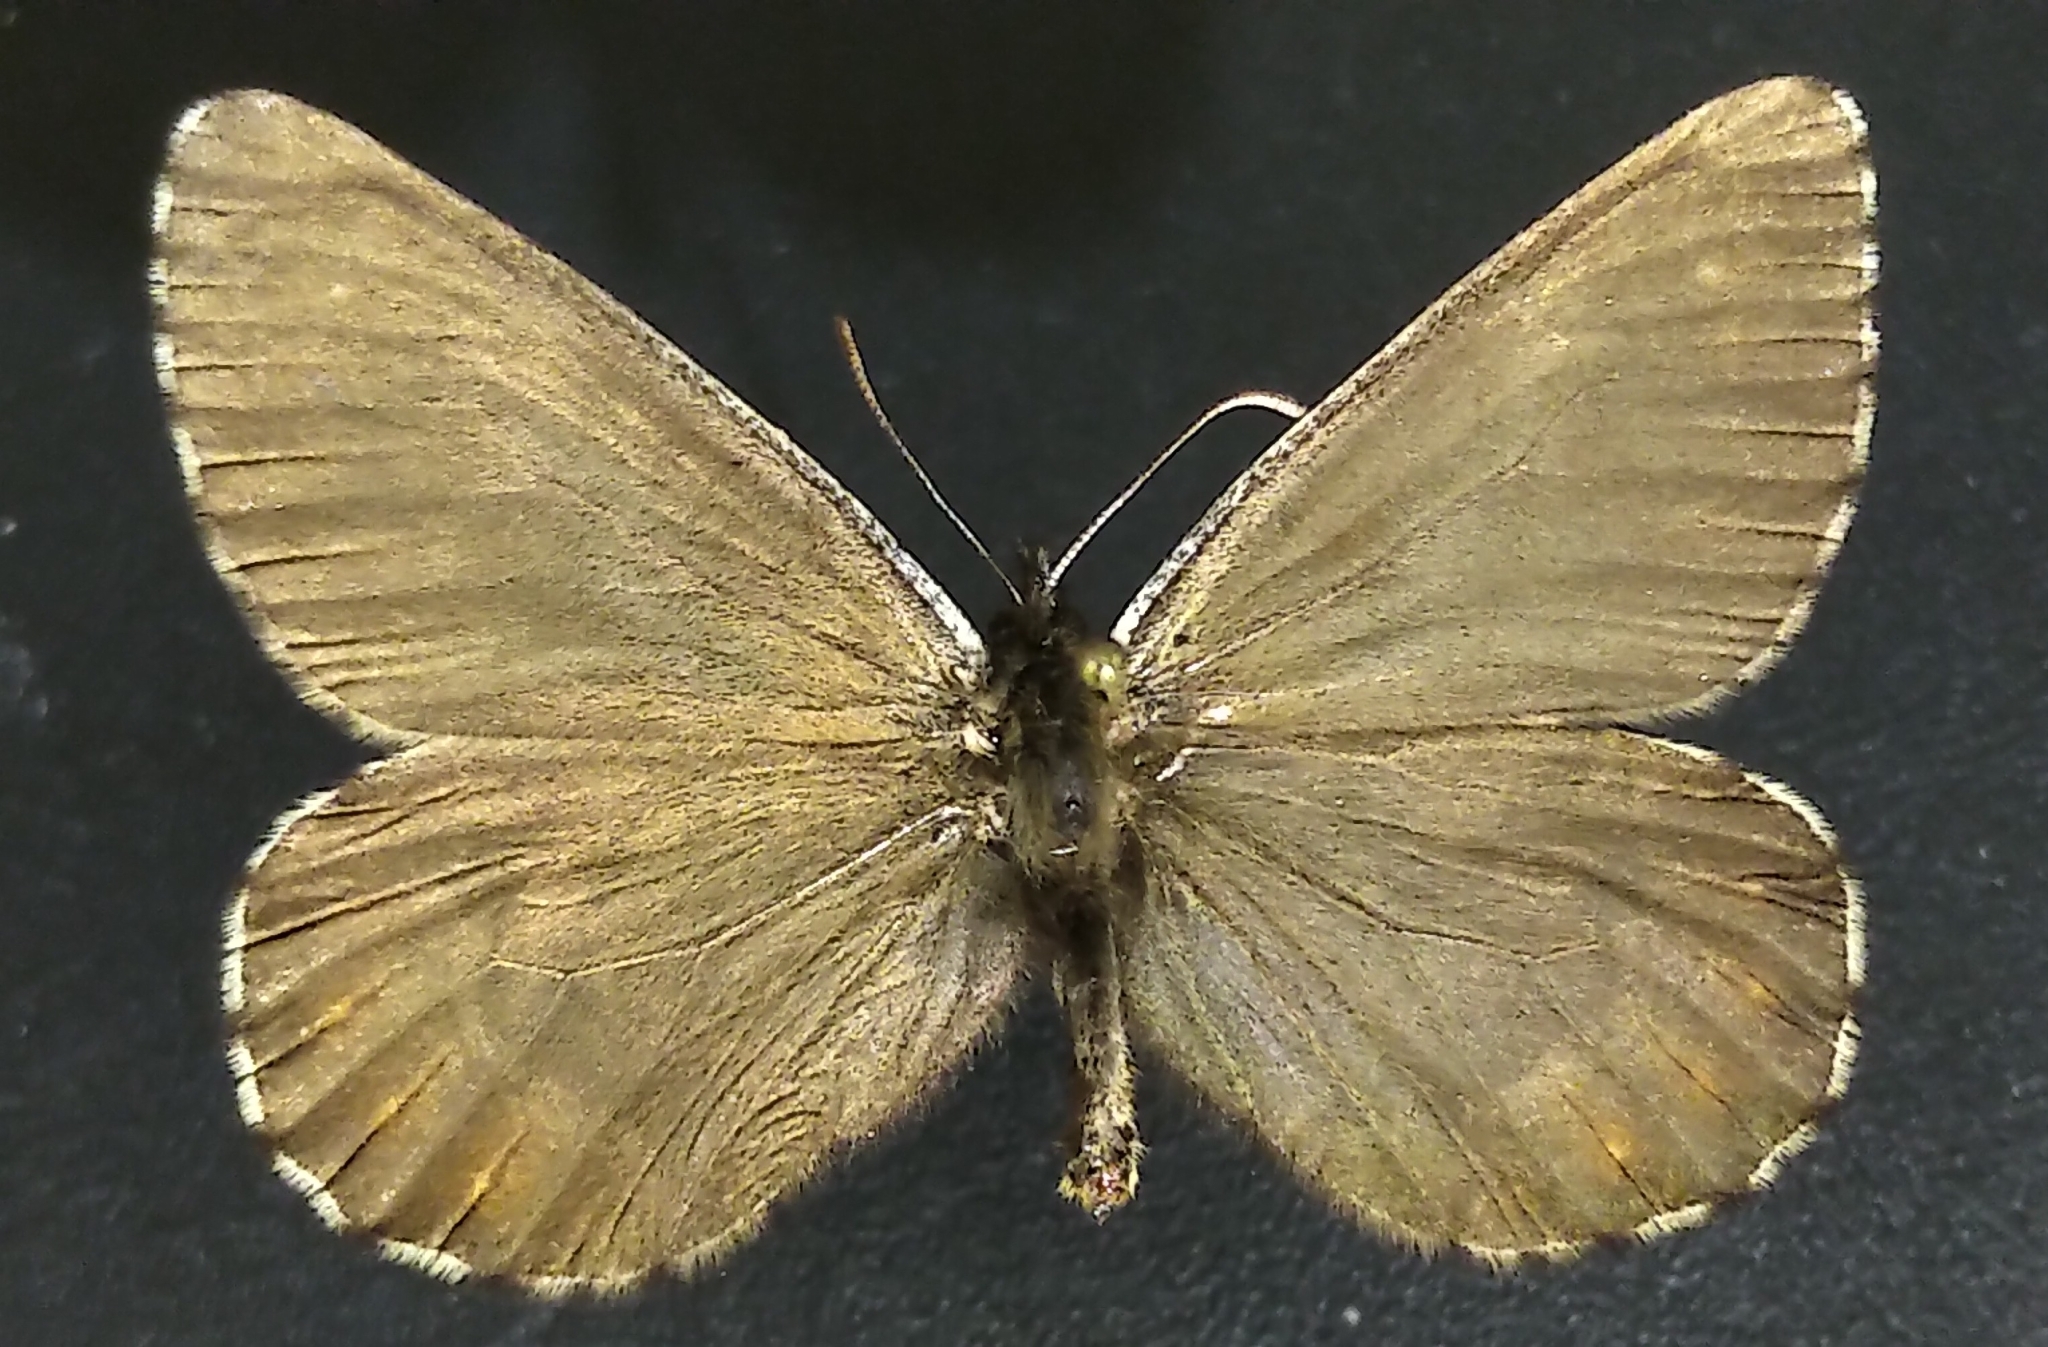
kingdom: Animalia
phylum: Arthropoda
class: Insecta
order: Lepidoptera
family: Nymphalidae
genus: Oeneis
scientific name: Oeneis bore
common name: Arctic grayling
